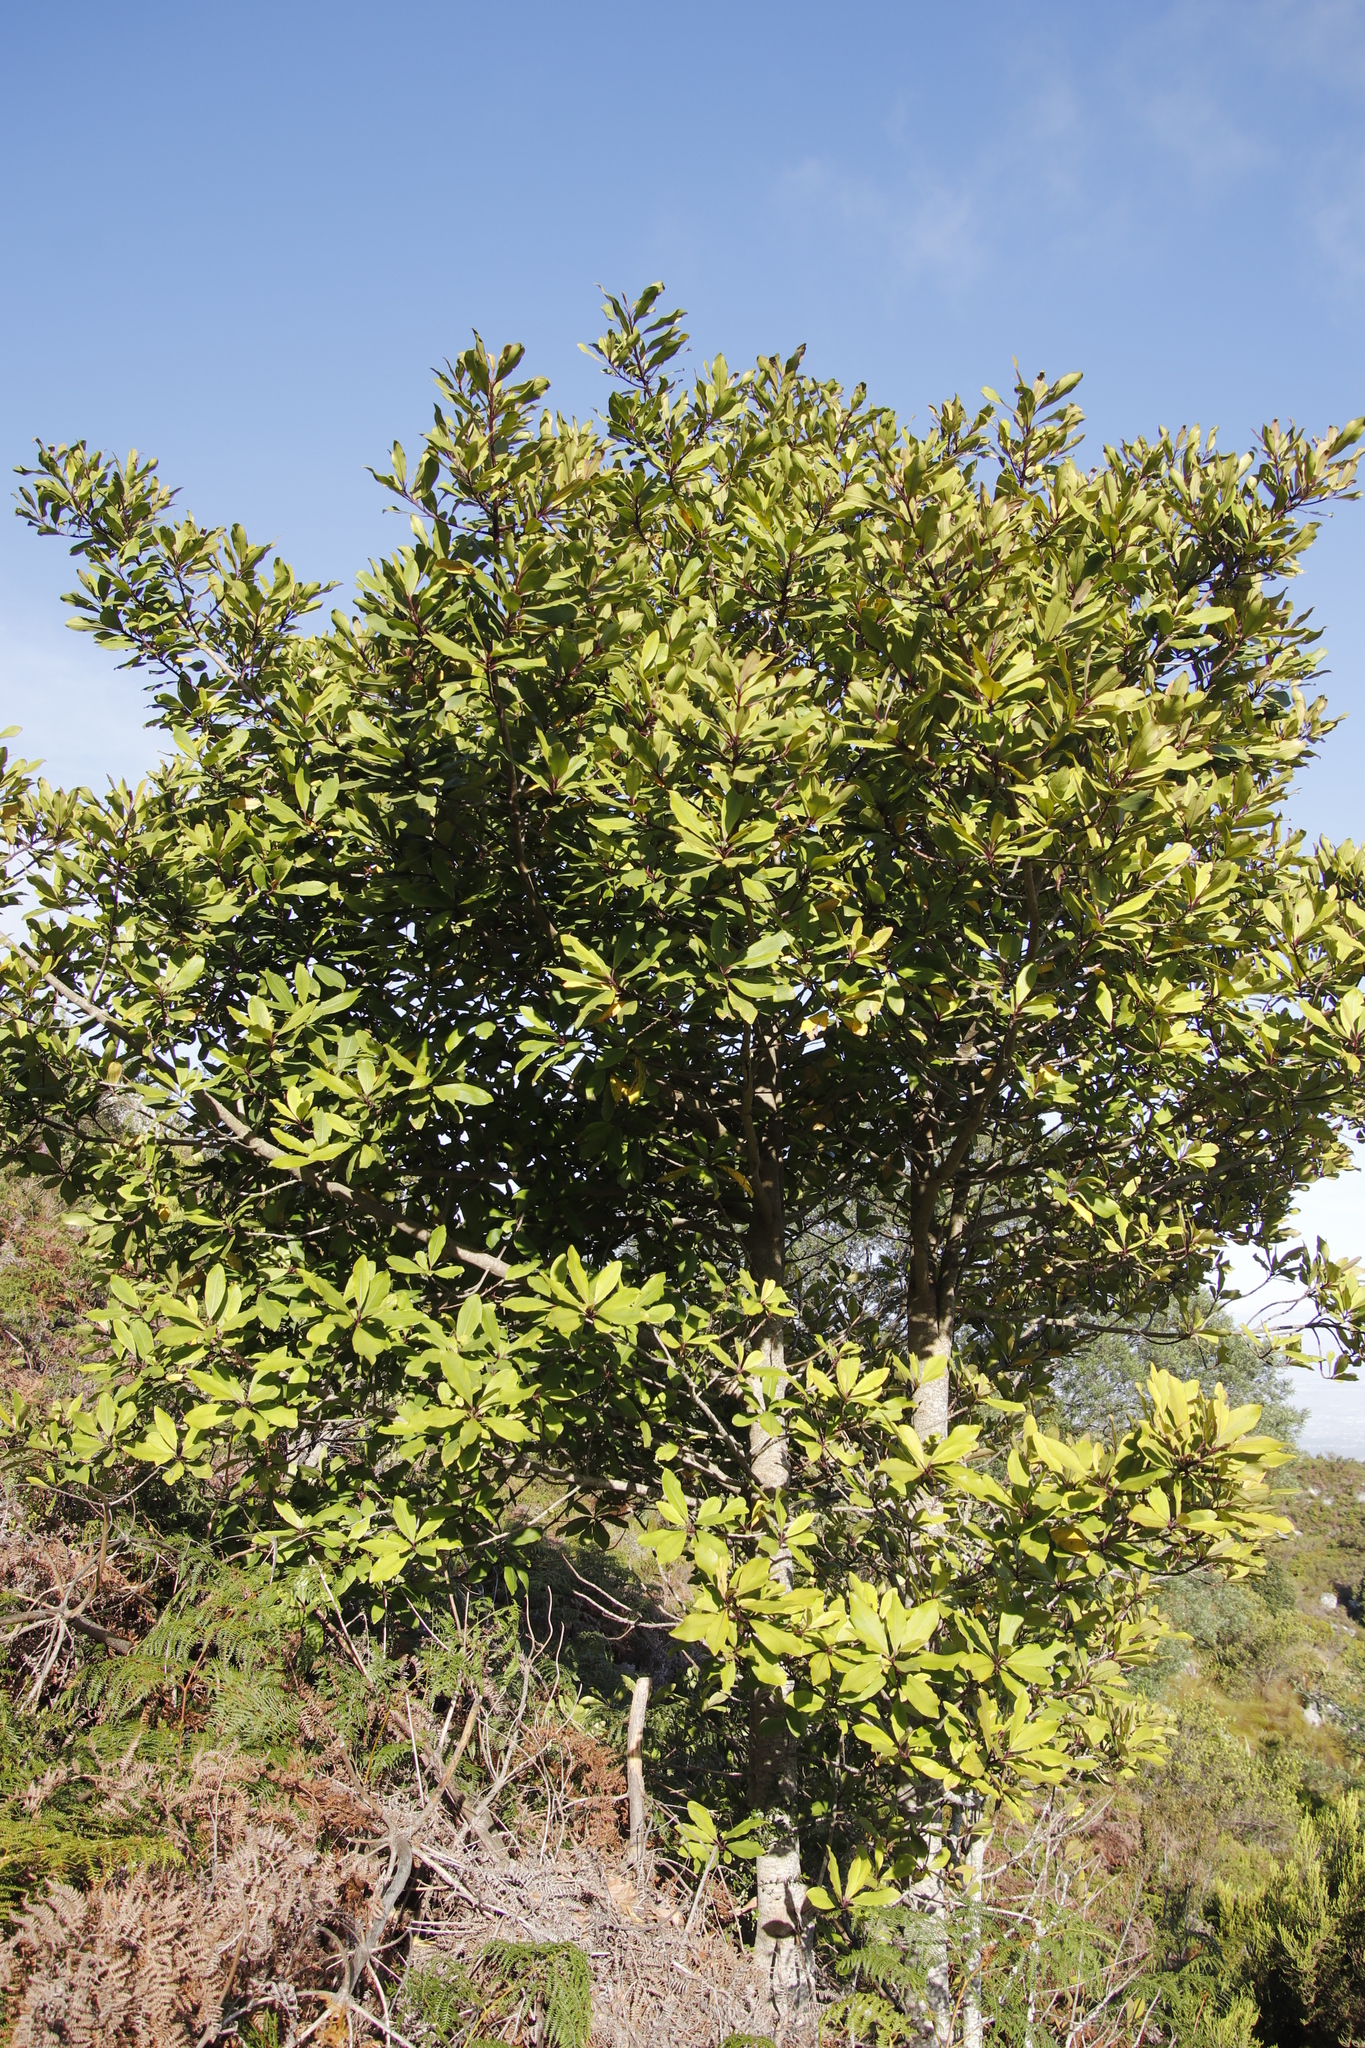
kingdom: Plantae
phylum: Tracheophyta
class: Magnoliopsida
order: Ericales
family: Primulaceae
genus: Myrsine
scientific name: Myrsine melanophloeos
